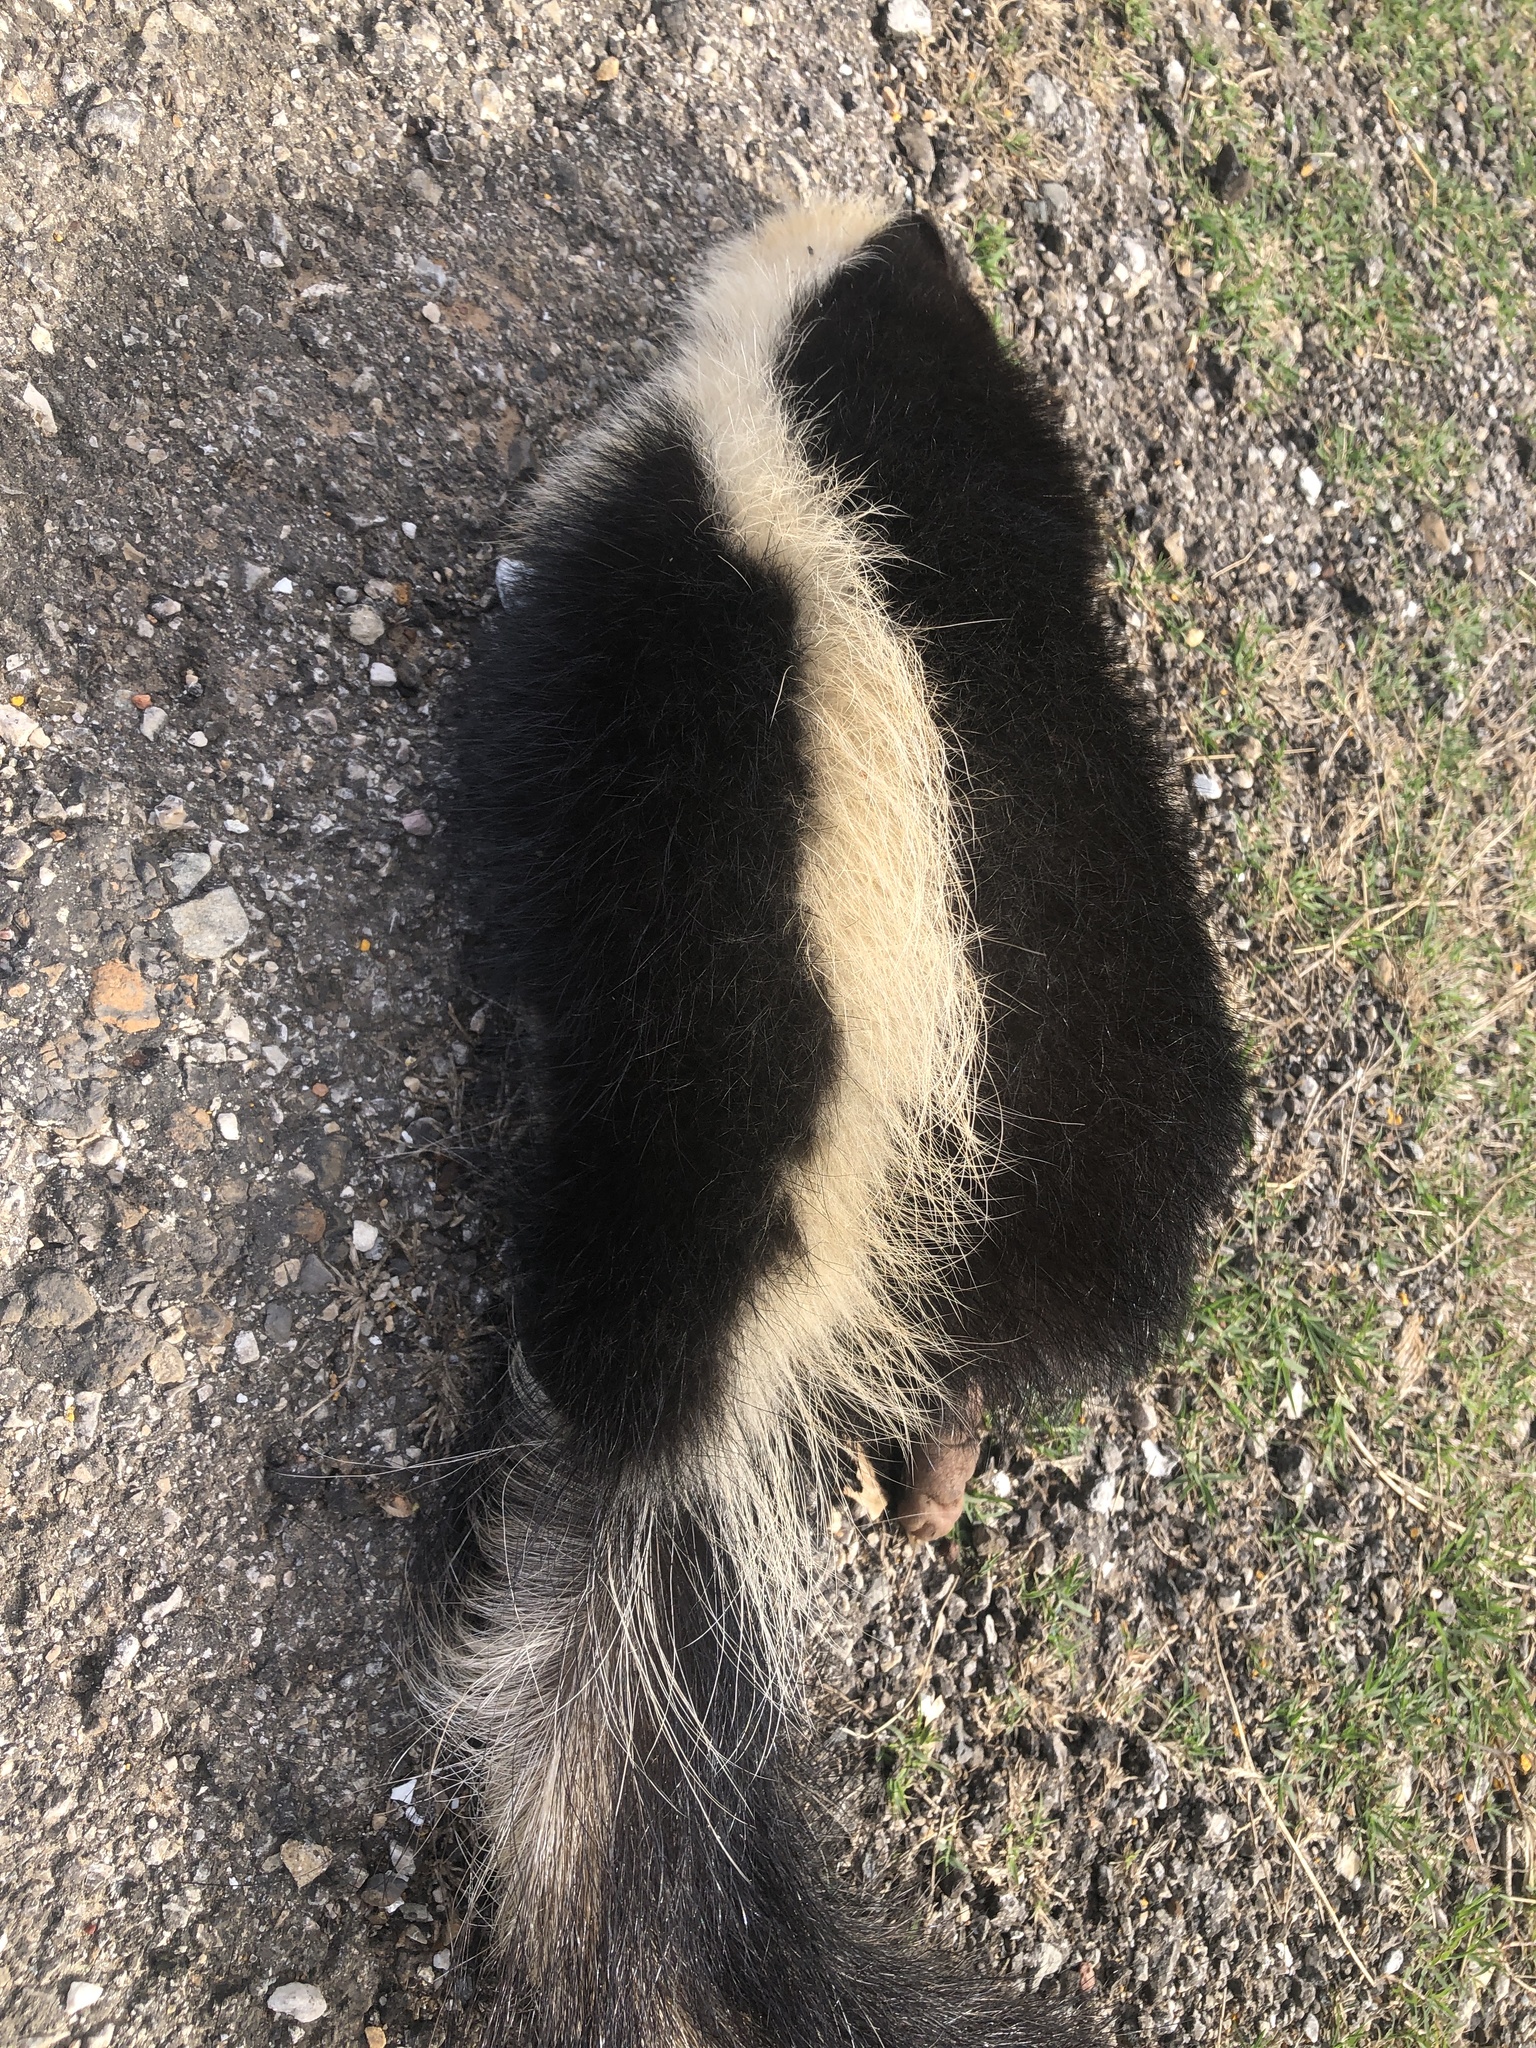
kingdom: Animalia
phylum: Chordata
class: Mammalia
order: Carnivora
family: Mephitidae
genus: Mephitis
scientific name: Mephitis mephitis
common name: Striped skunk
